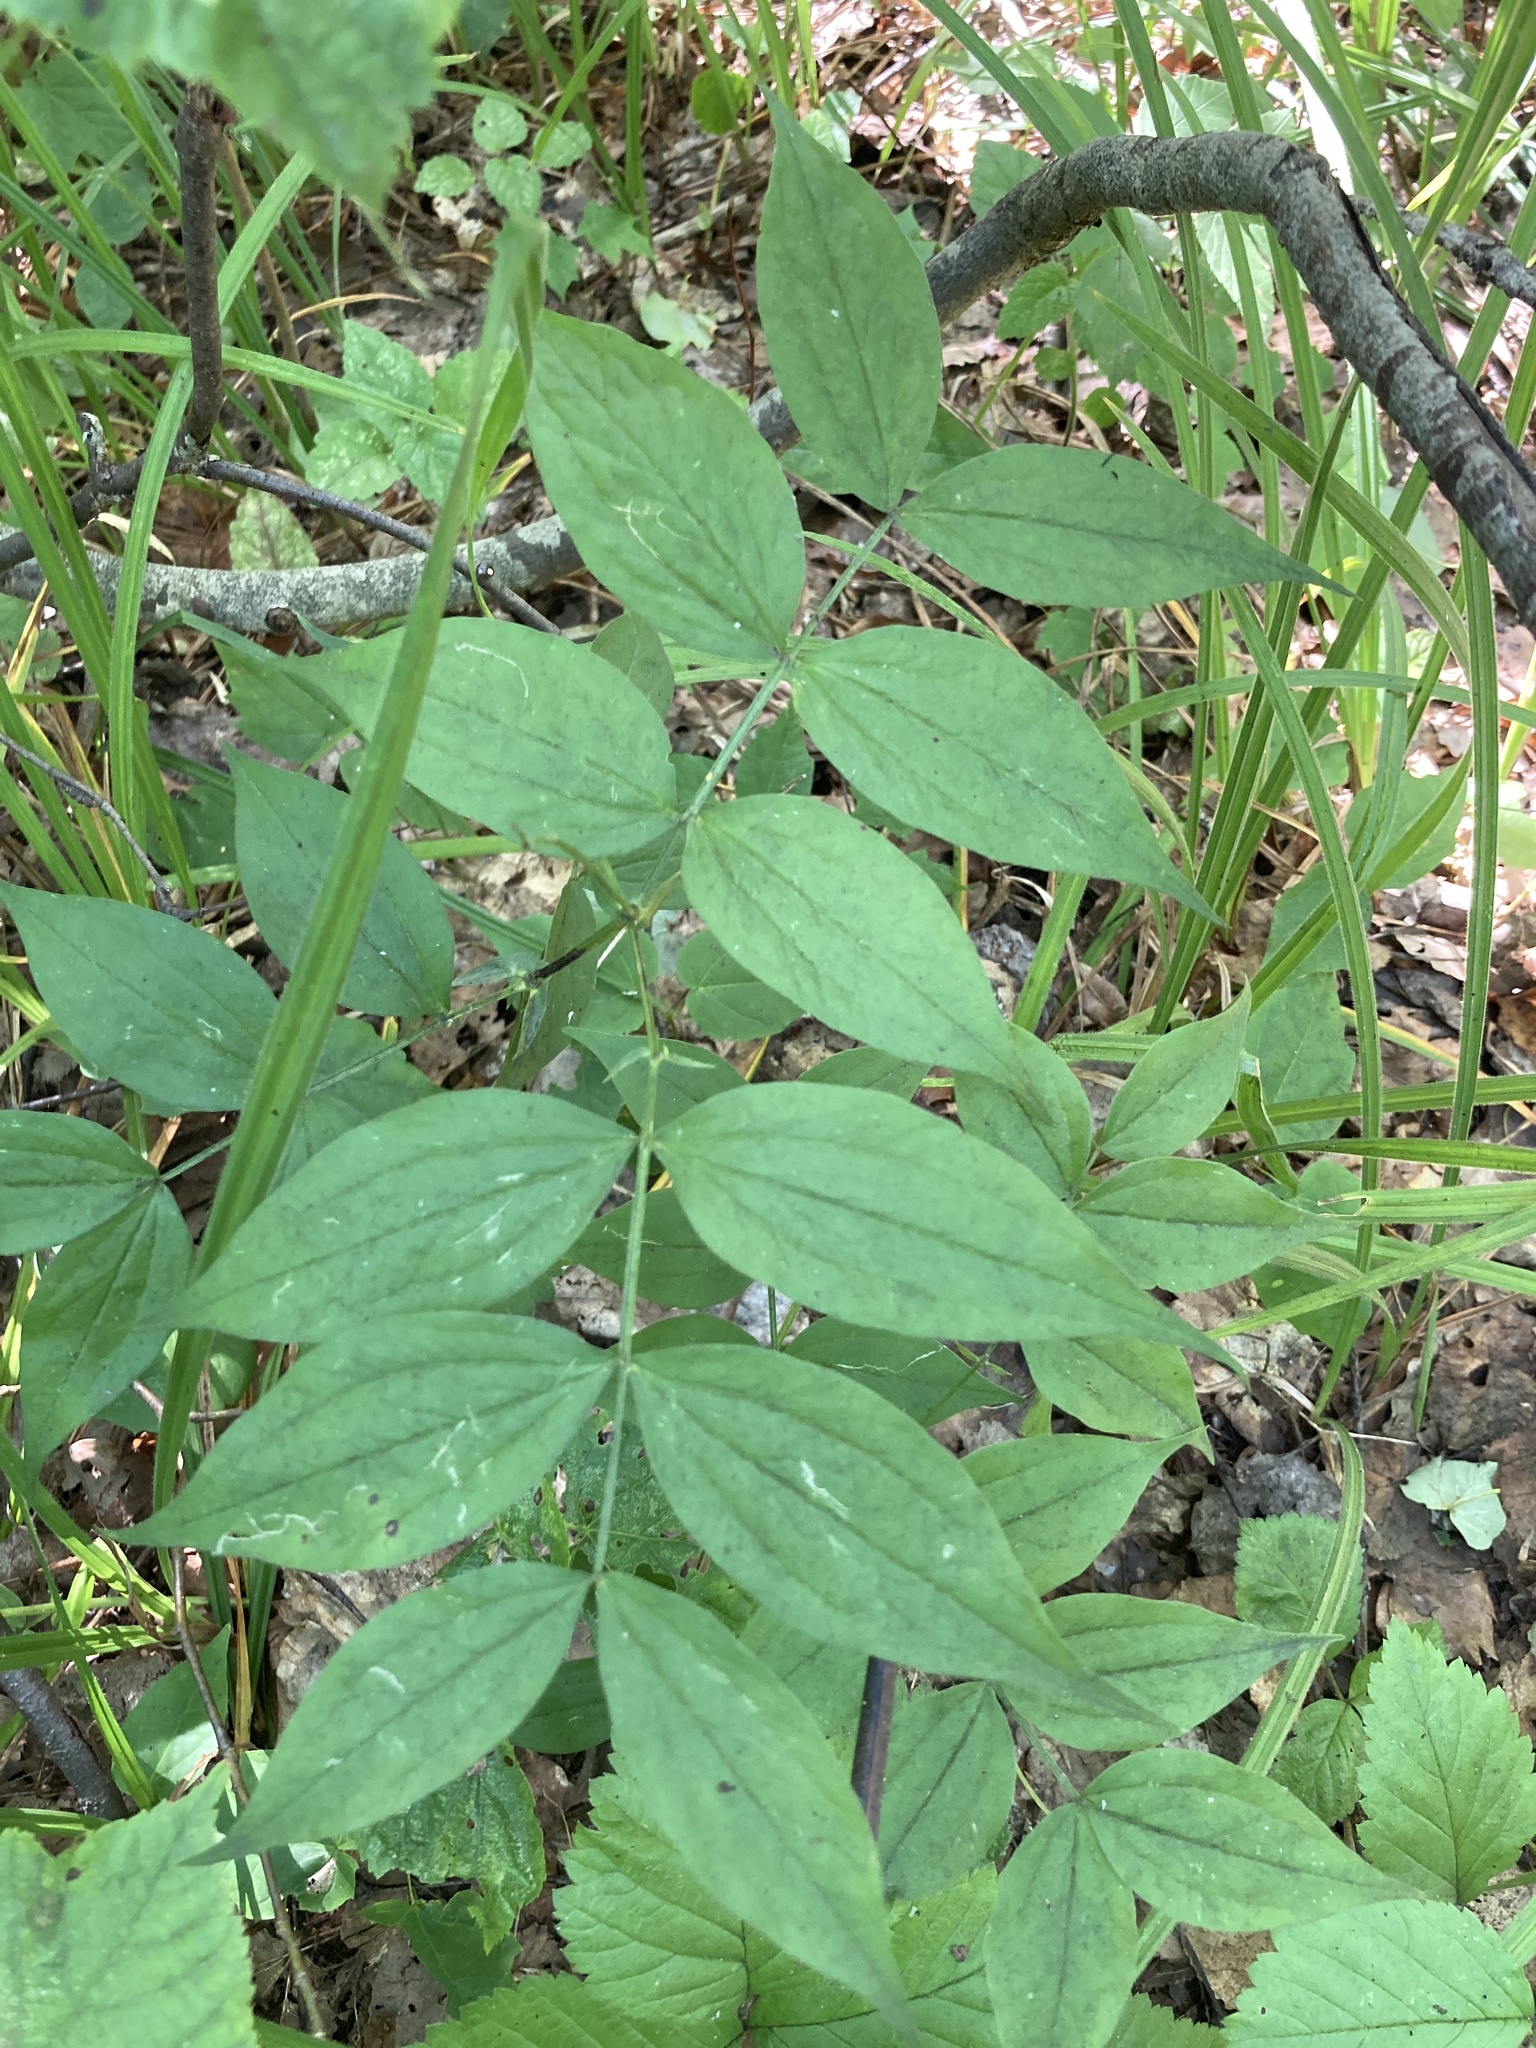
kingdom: Plantae
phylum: Tracheophyta
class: Magnoliopsida
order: Fabales
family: Fabaceae
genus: Lathyrus
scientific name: Lathyrus vernus
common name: Spring pea
